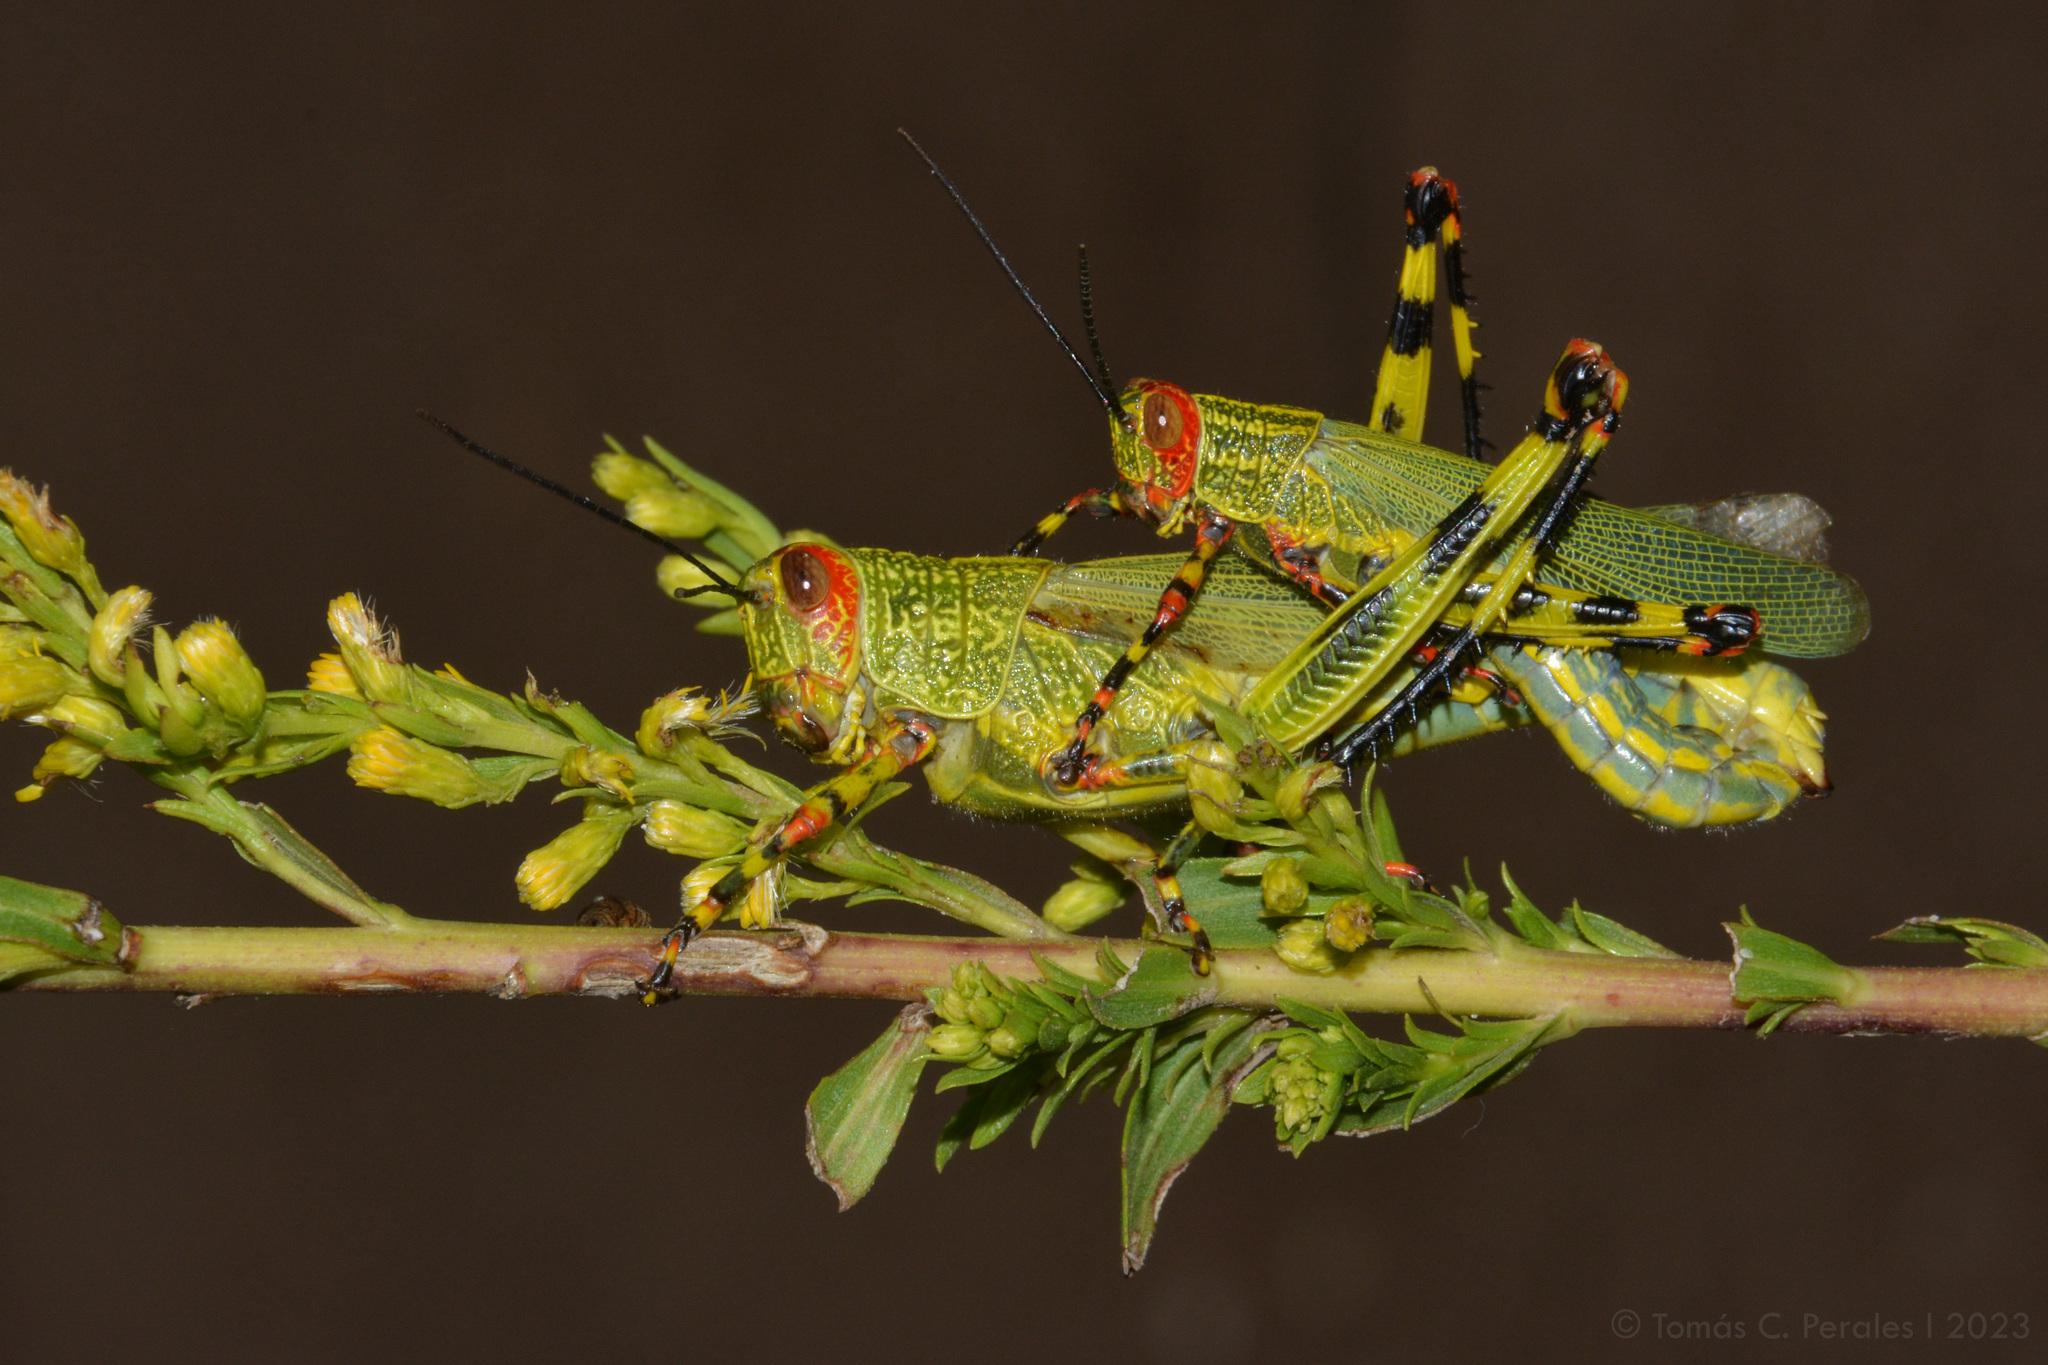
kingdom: Animalia
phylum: Arthropoda
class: Insecta
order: Orthoptera
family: Romaleidae
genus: Zoniopoda
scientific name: Zoniopoda tarsata
